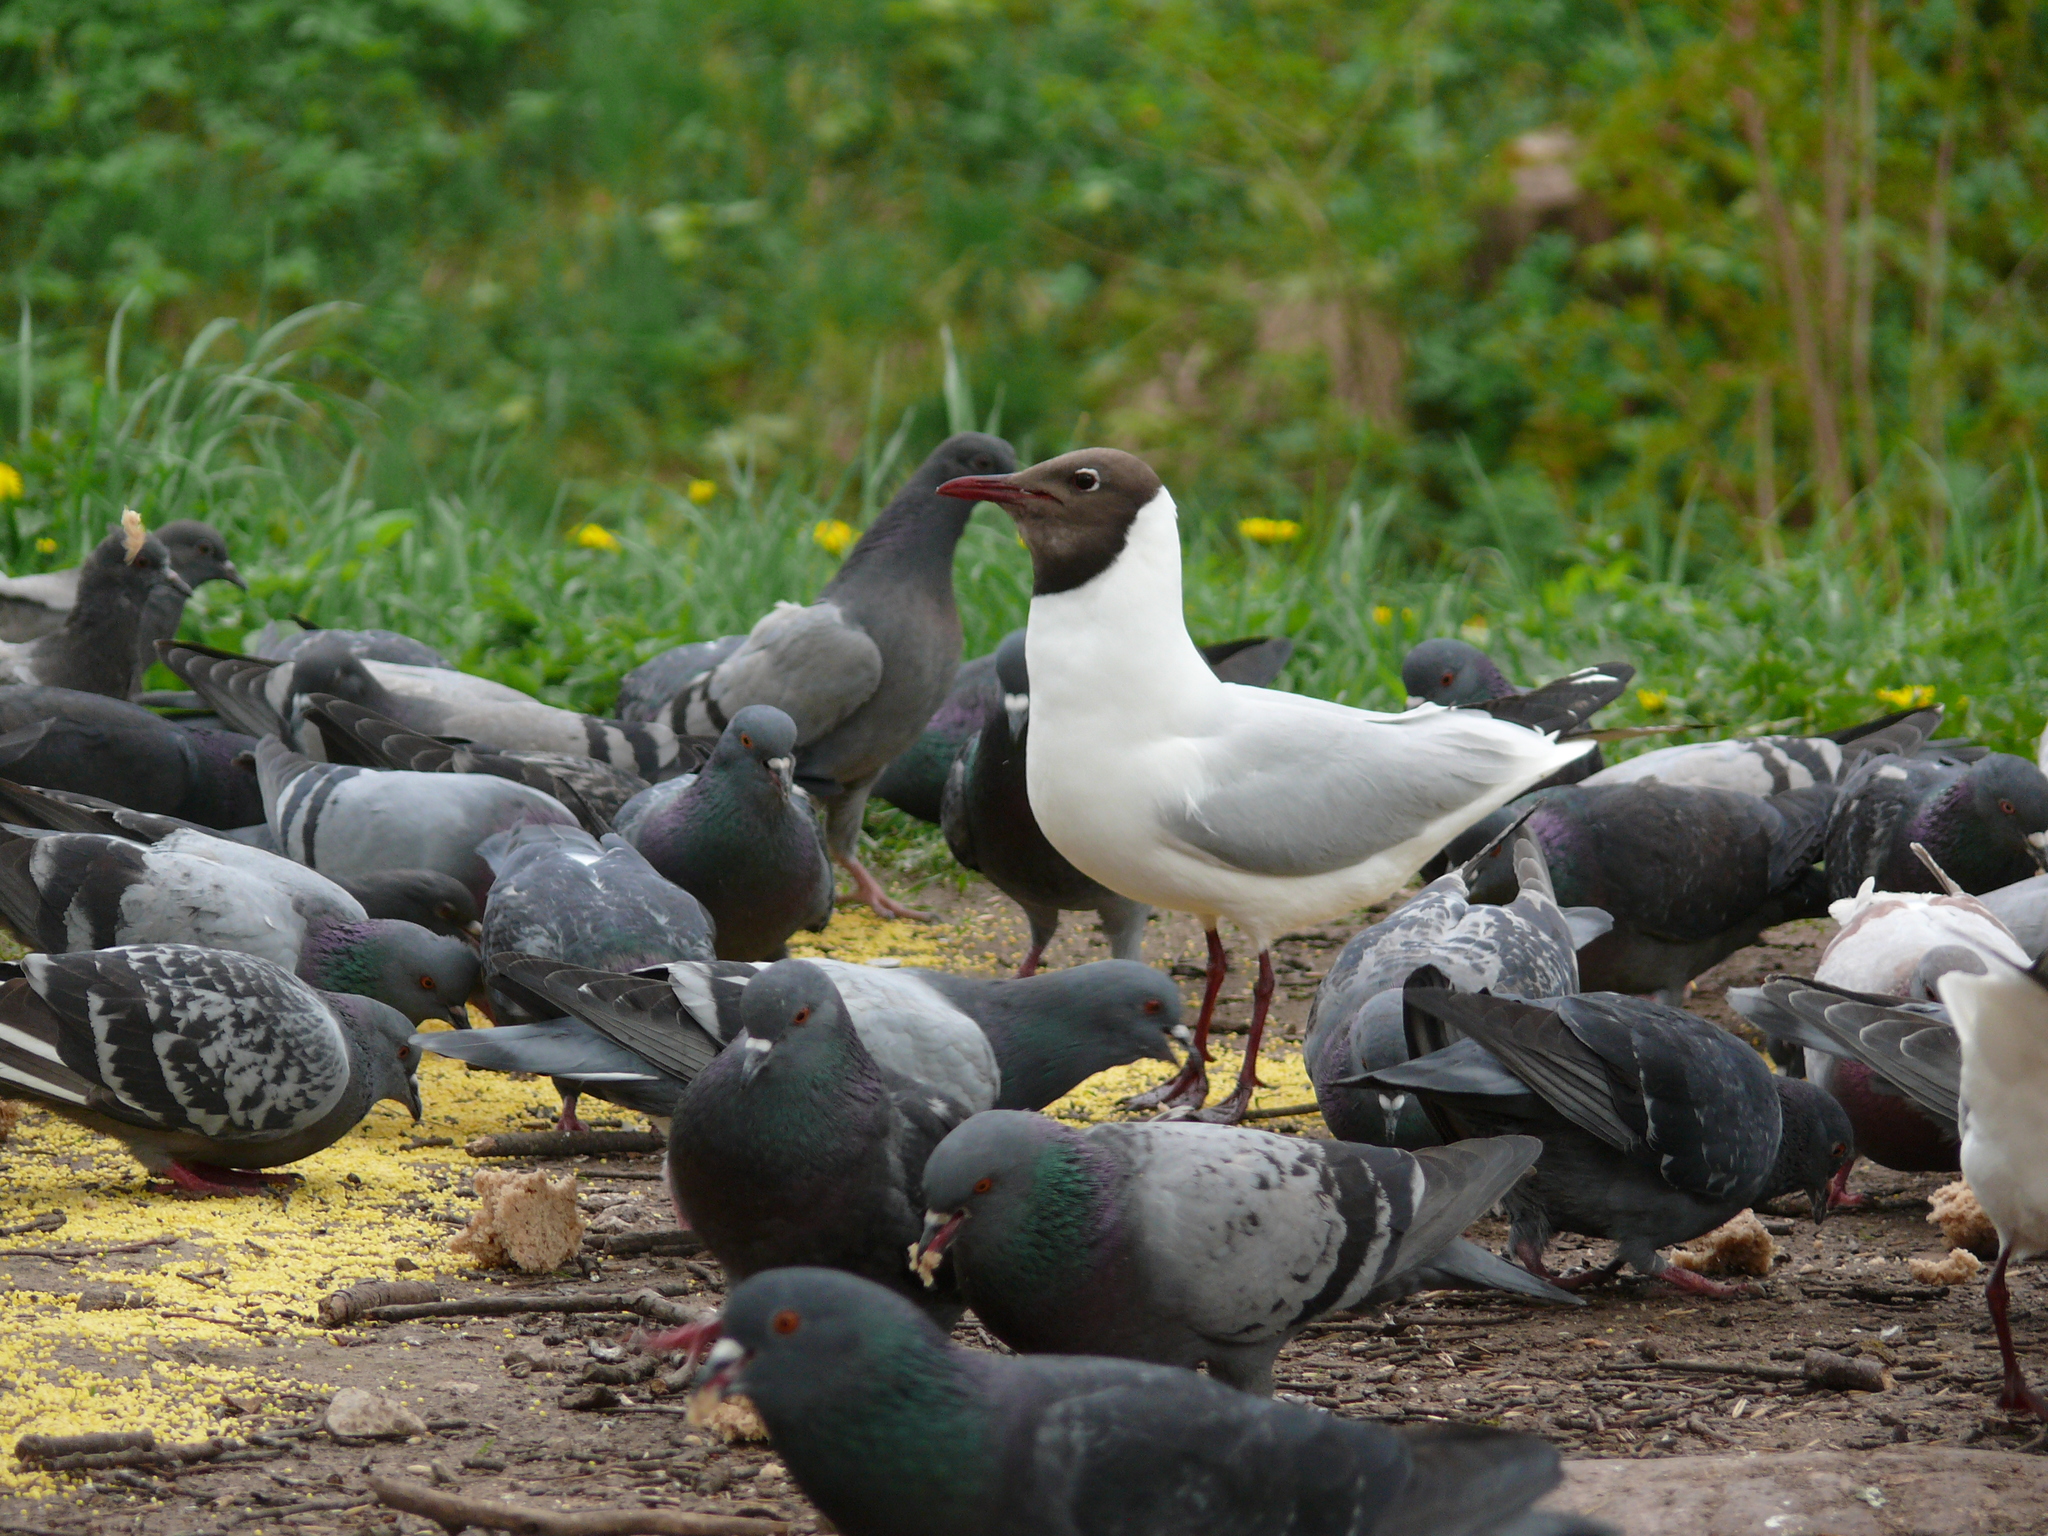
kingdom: Animalia
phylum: Chordata
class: Aves
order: Charadriiformes
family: Laridae
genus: Chroicocephalus
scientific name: Chroicocephalus ridibundus
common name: Black-headed gull
